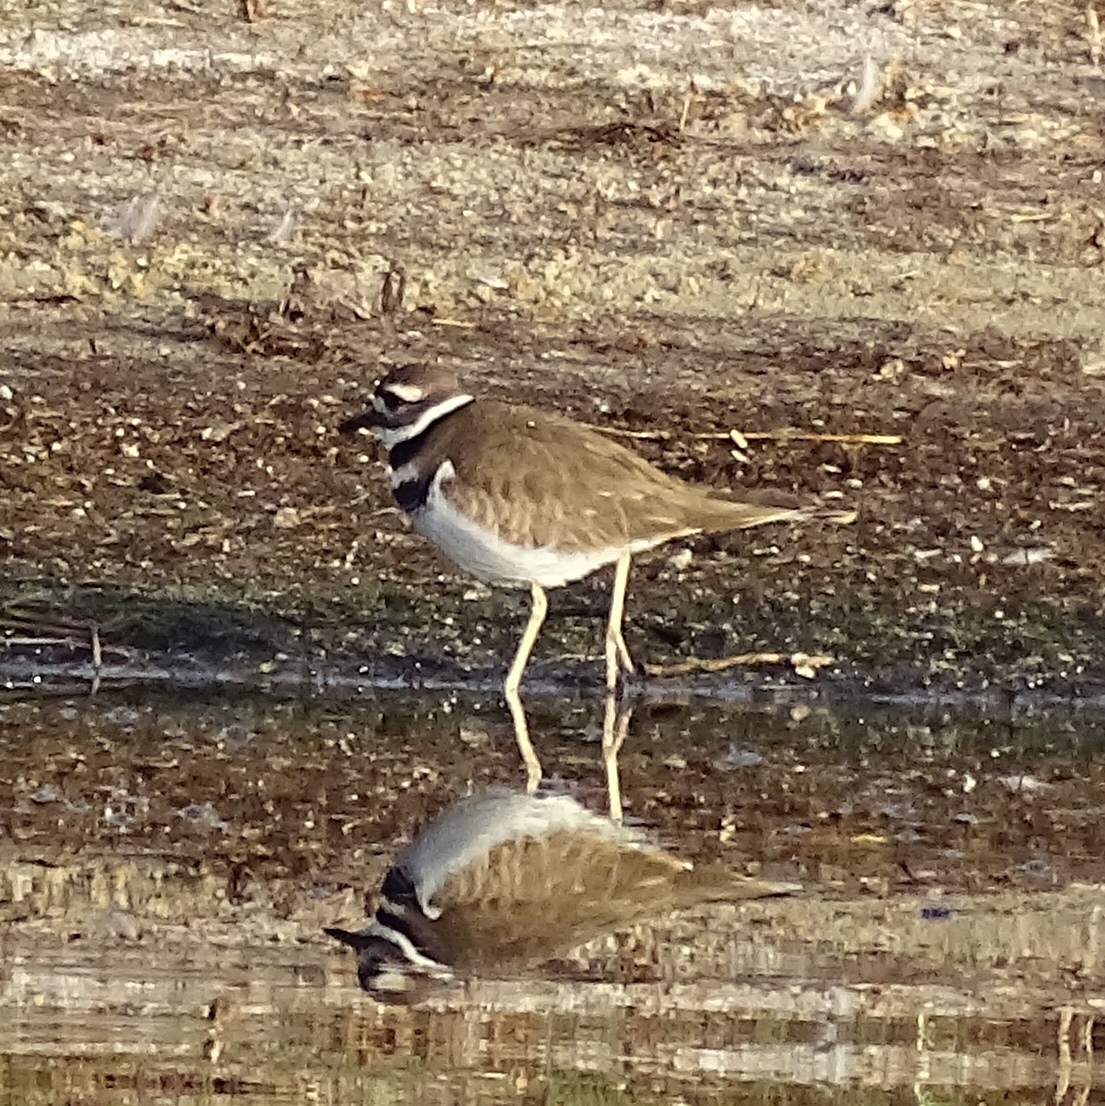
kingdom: Animalia
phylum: Chordata
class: Aves
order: Charadriiformes
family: Charadriidae
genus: Charadrius
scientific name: Charadrius vociferus
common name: Killdeer
